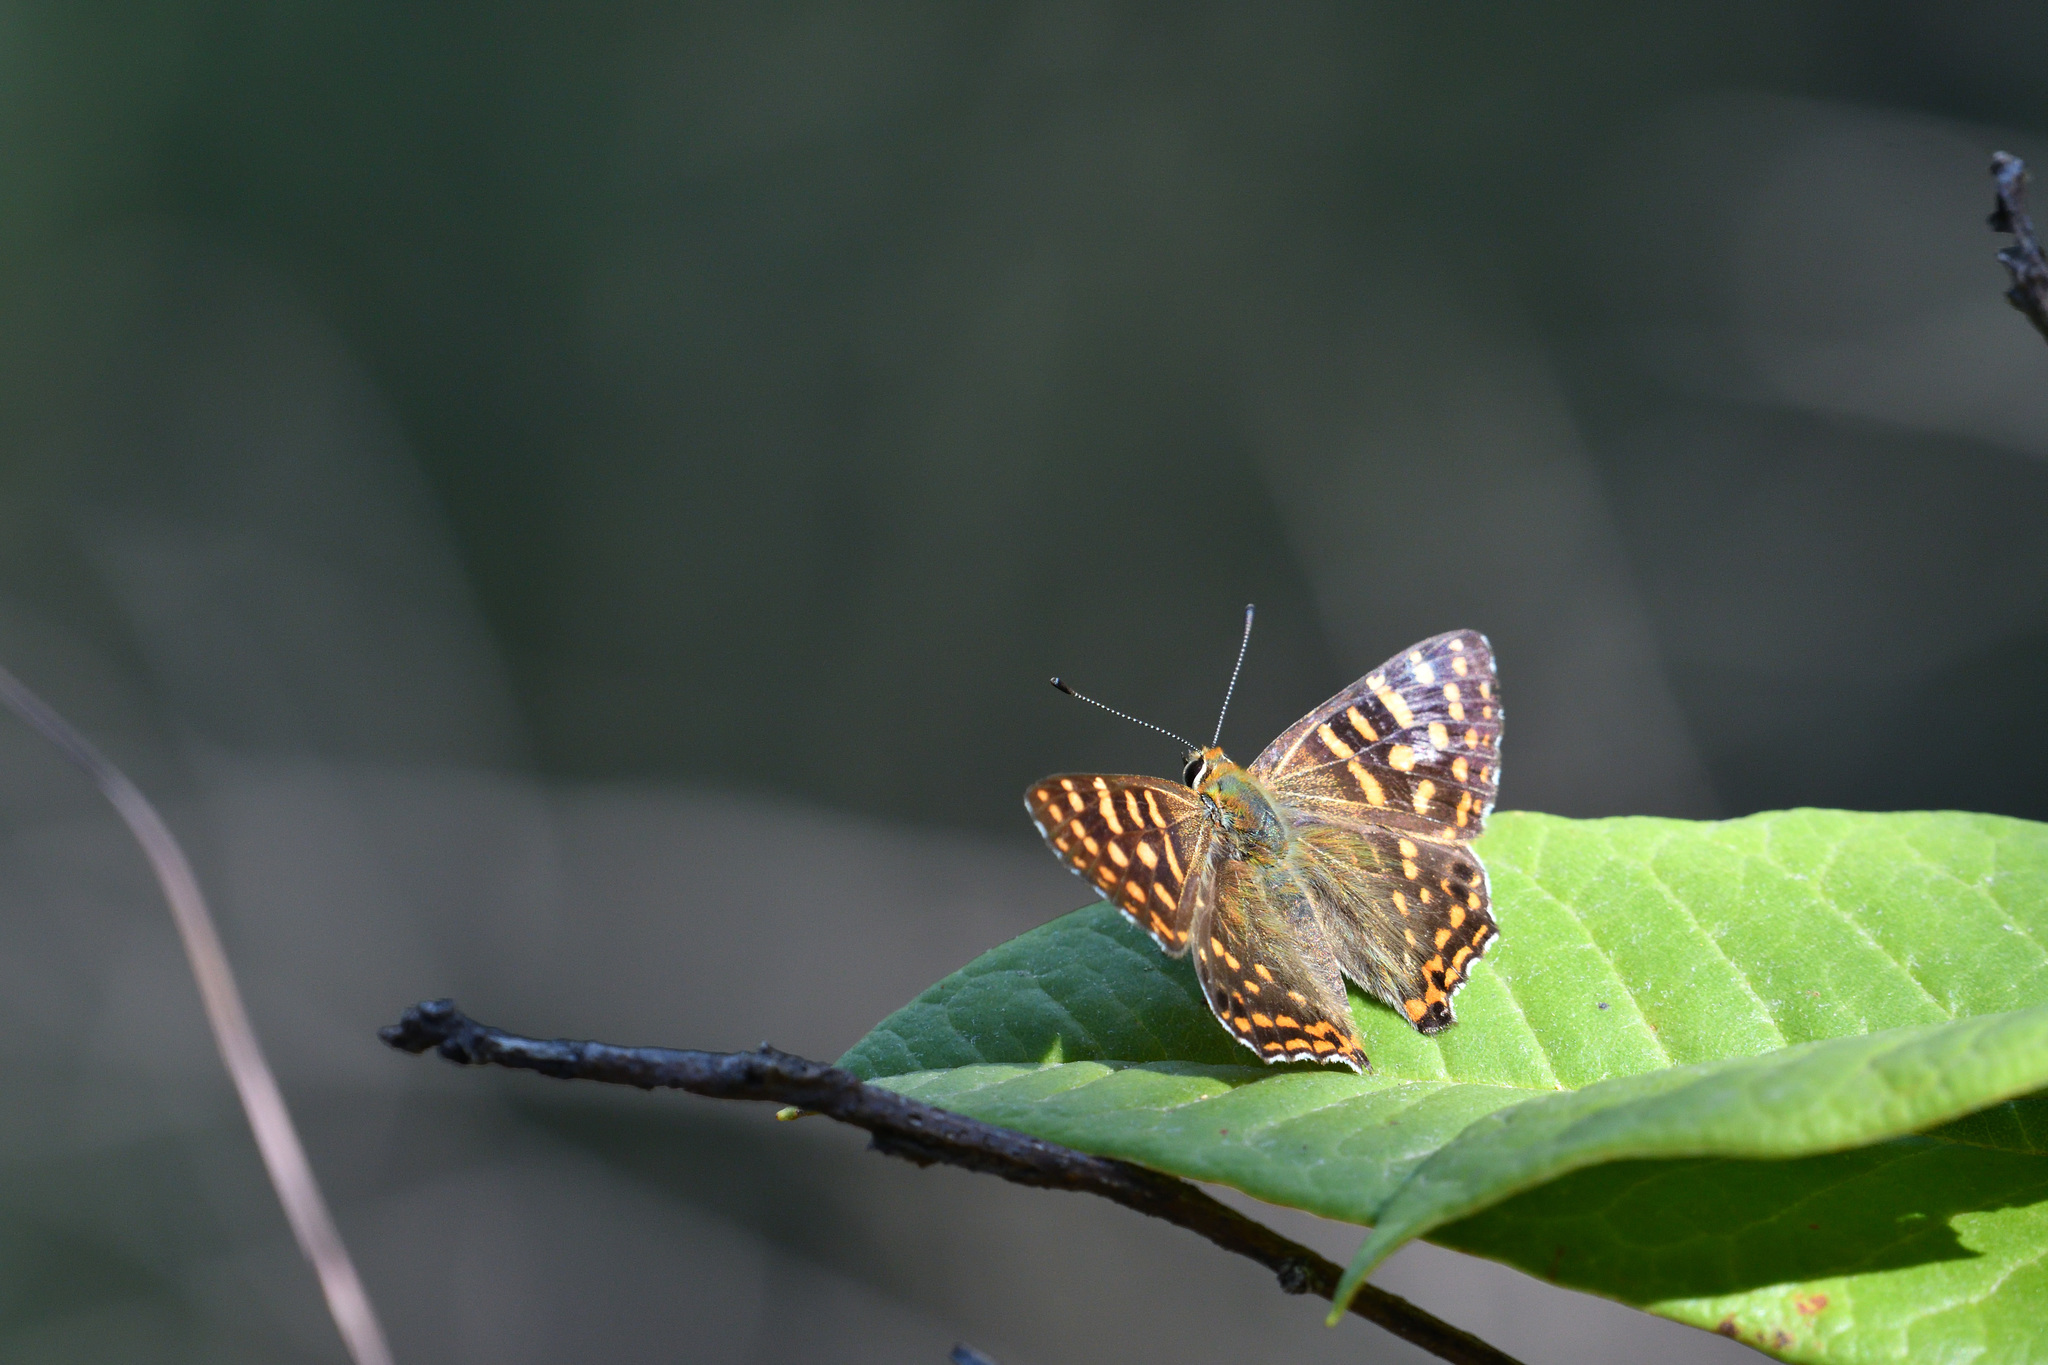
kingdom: Animalia
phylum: Arthropoda
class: Insecta
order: Lepidoptera
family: Lycaenidae
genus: Dodona
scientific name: Dodona durga
